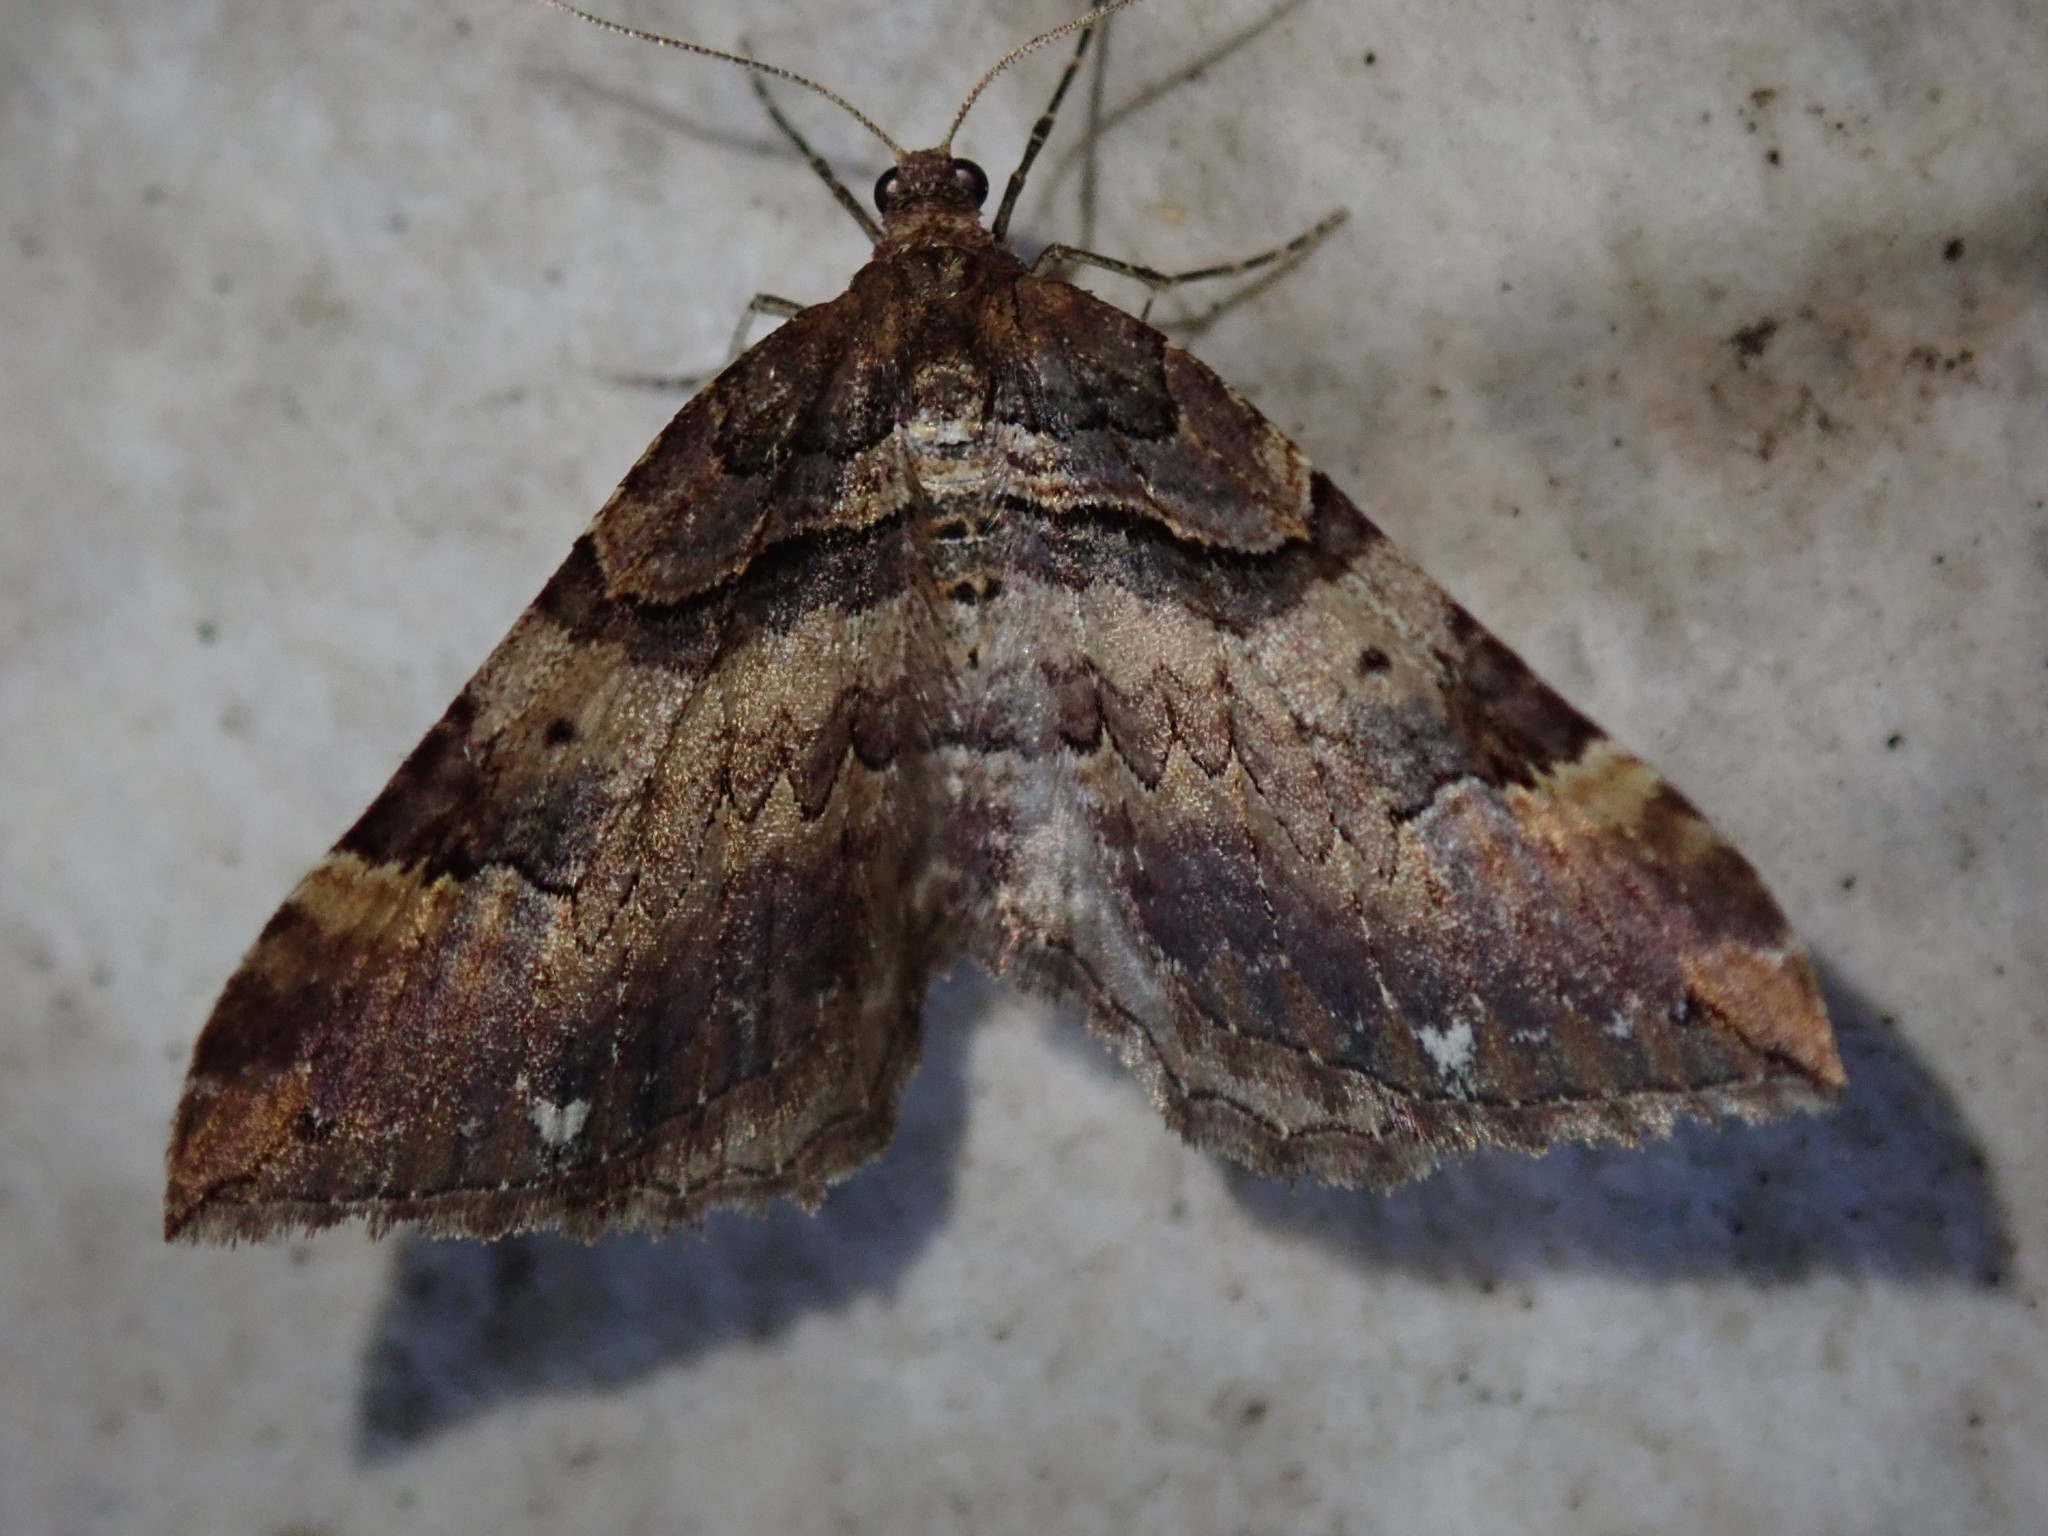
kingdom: Animalia
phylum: Arthropoda
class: Insecta
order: Lepidoptera
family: Geometridae
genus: Anticlea
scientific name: Anticlea badiata
